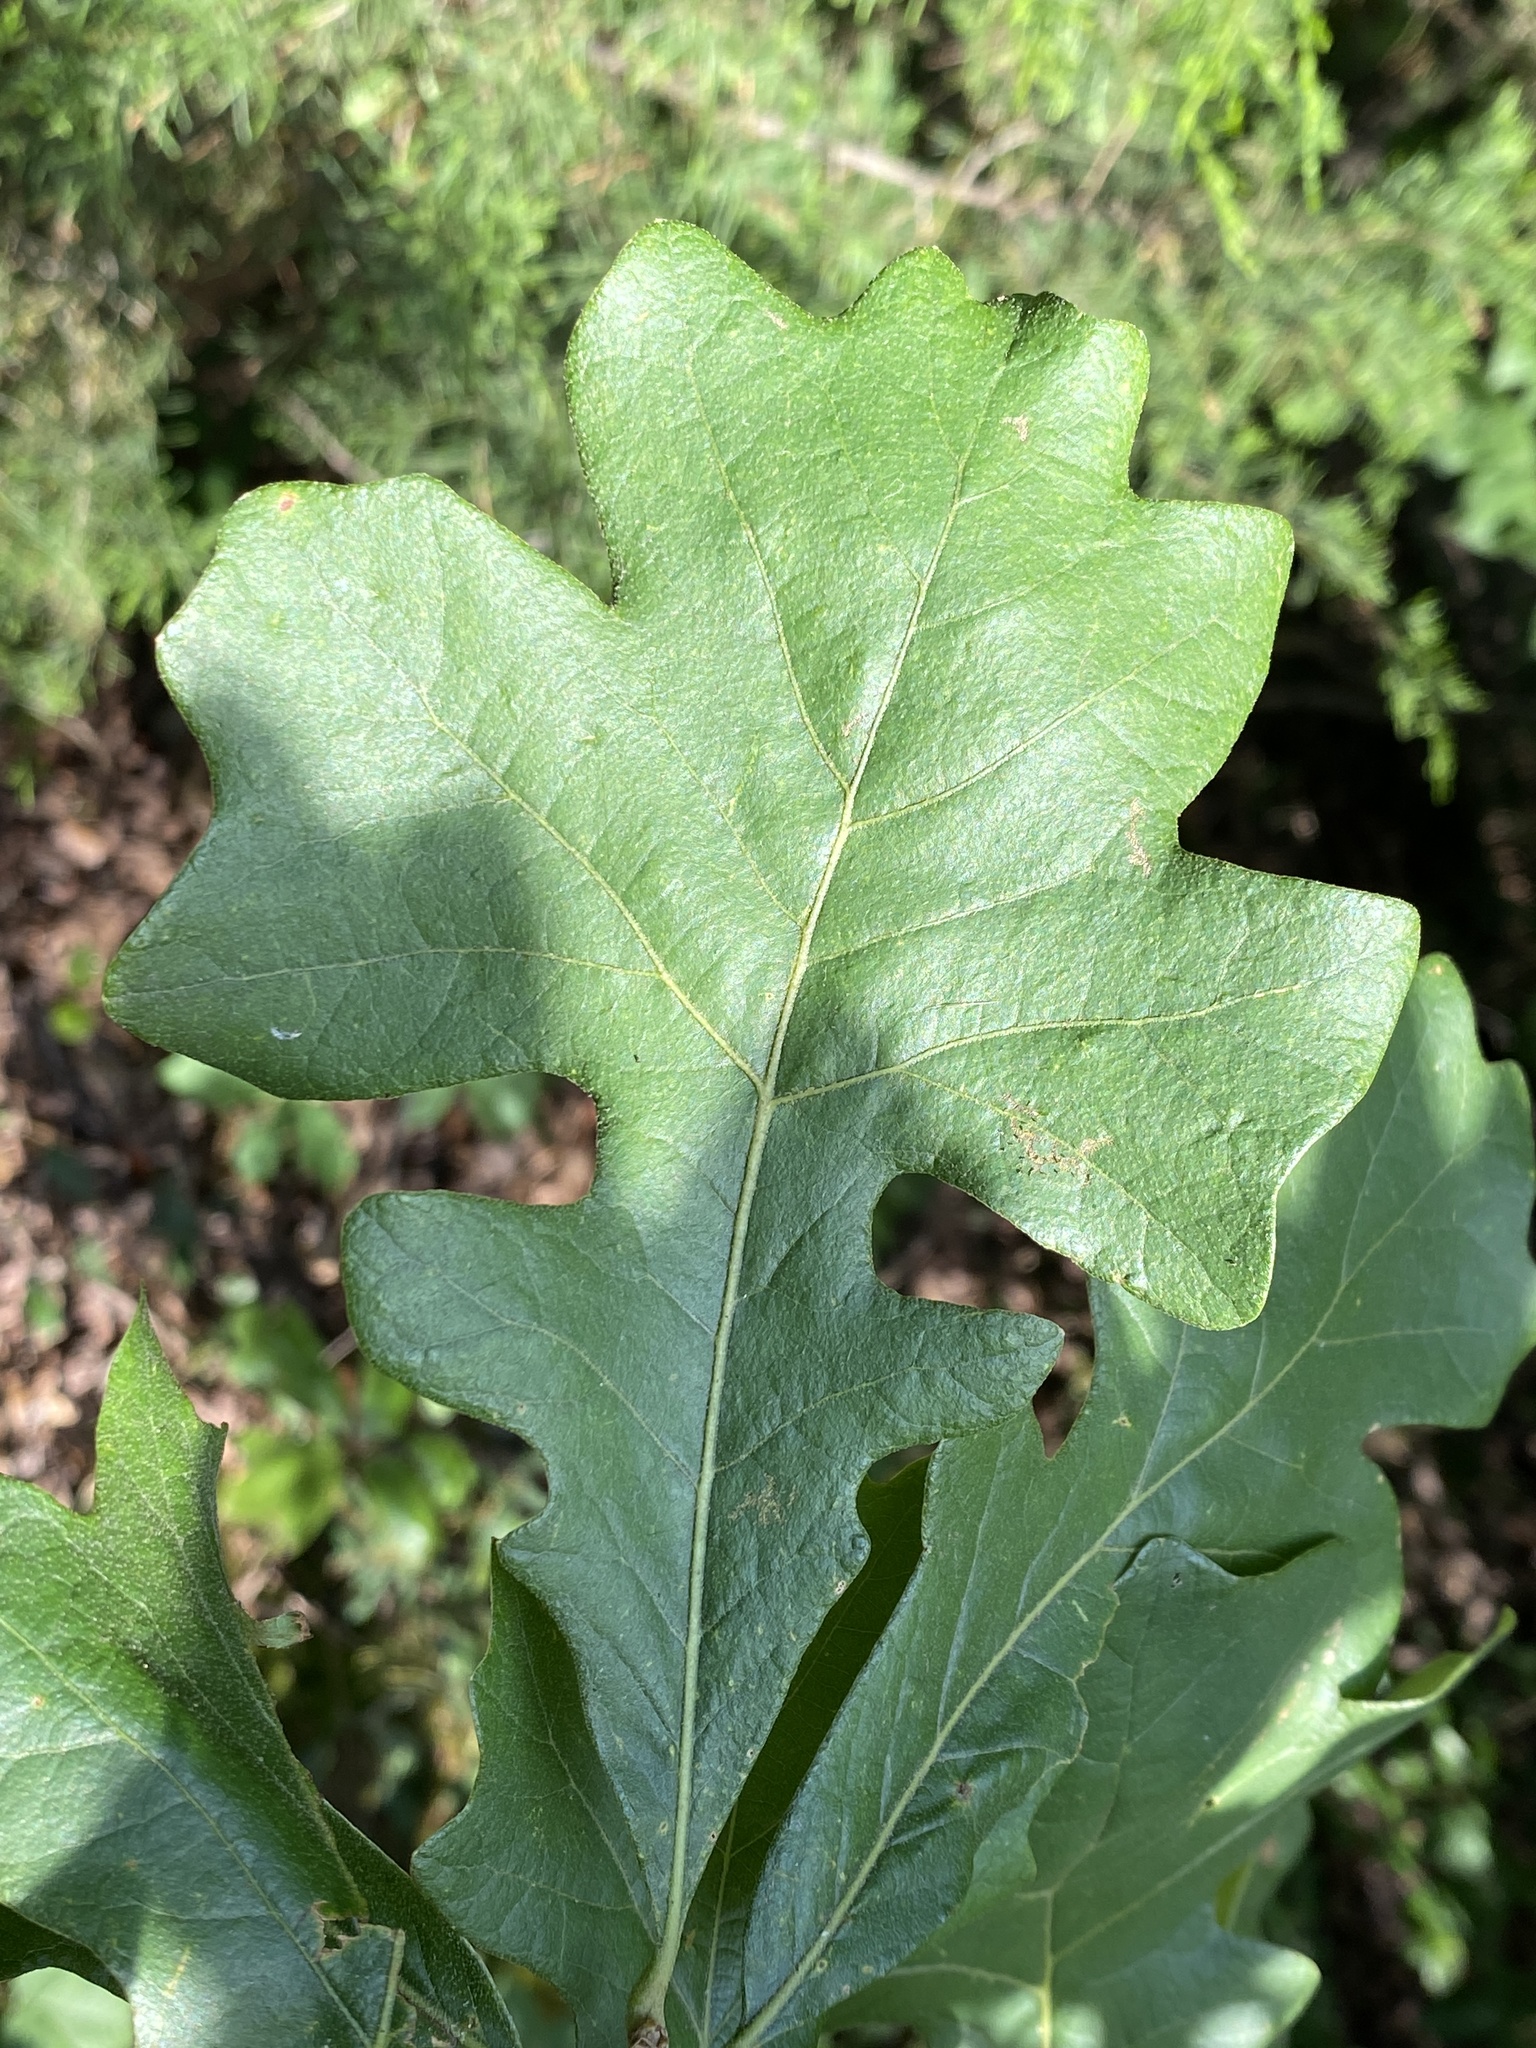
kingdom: Plantae
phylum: Tracheophyta
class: Magnoliopsida
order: Fagales
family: Fagaceae
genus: Quercus
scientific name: Quercus stellata
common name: Post oak
